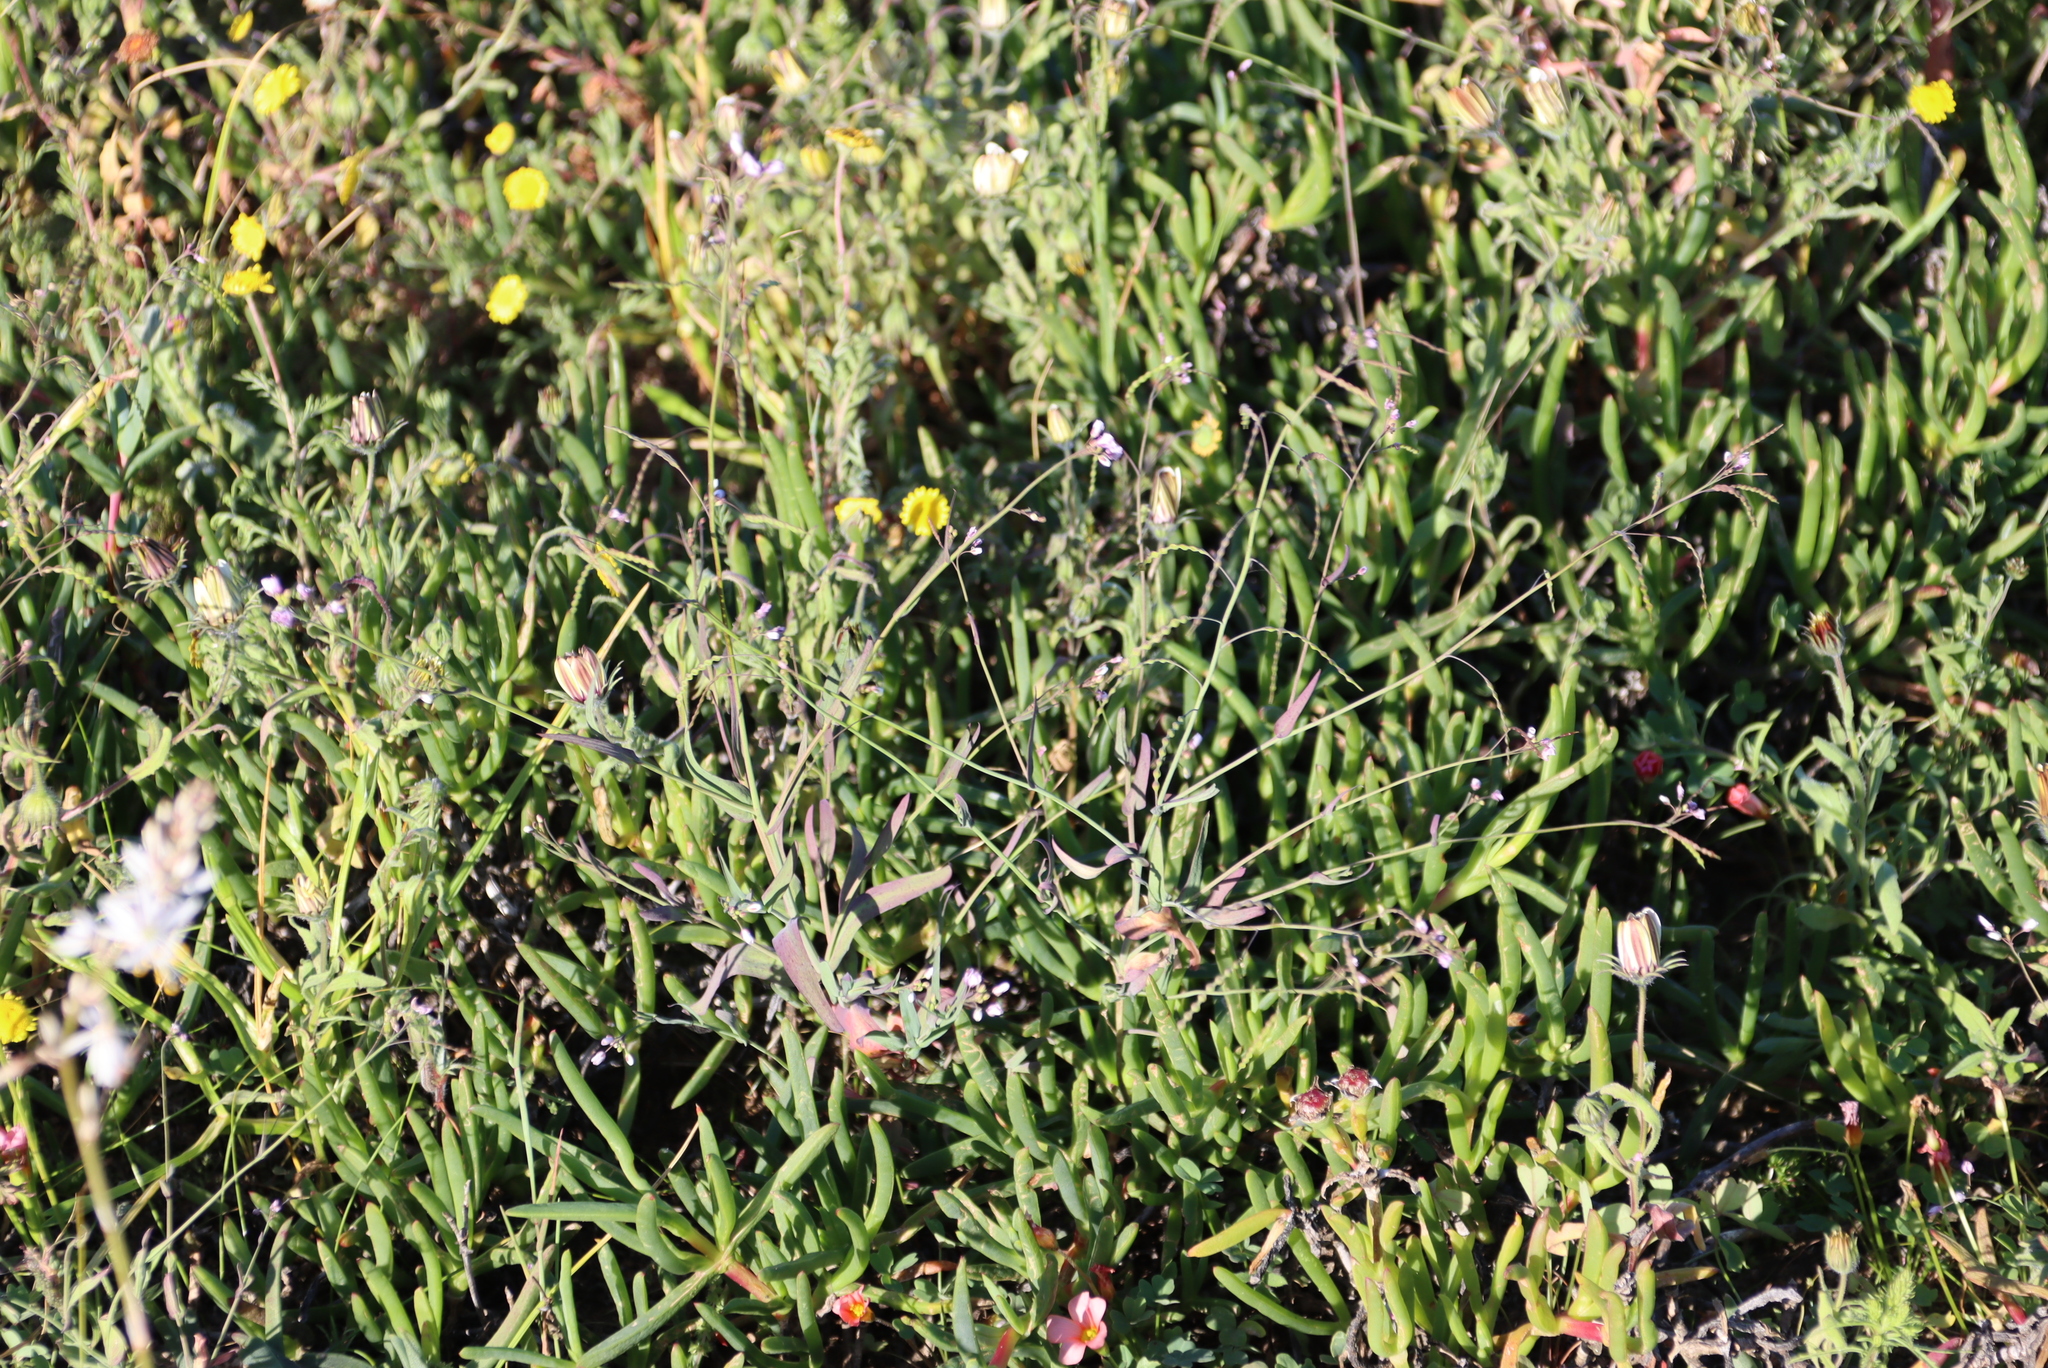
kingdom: Plantae
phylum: Tracheophyta
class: Magnoliopsida
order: Brassicales
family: Brassicaceae
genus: Heliophila
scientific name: Heliophila amplexicaulis
